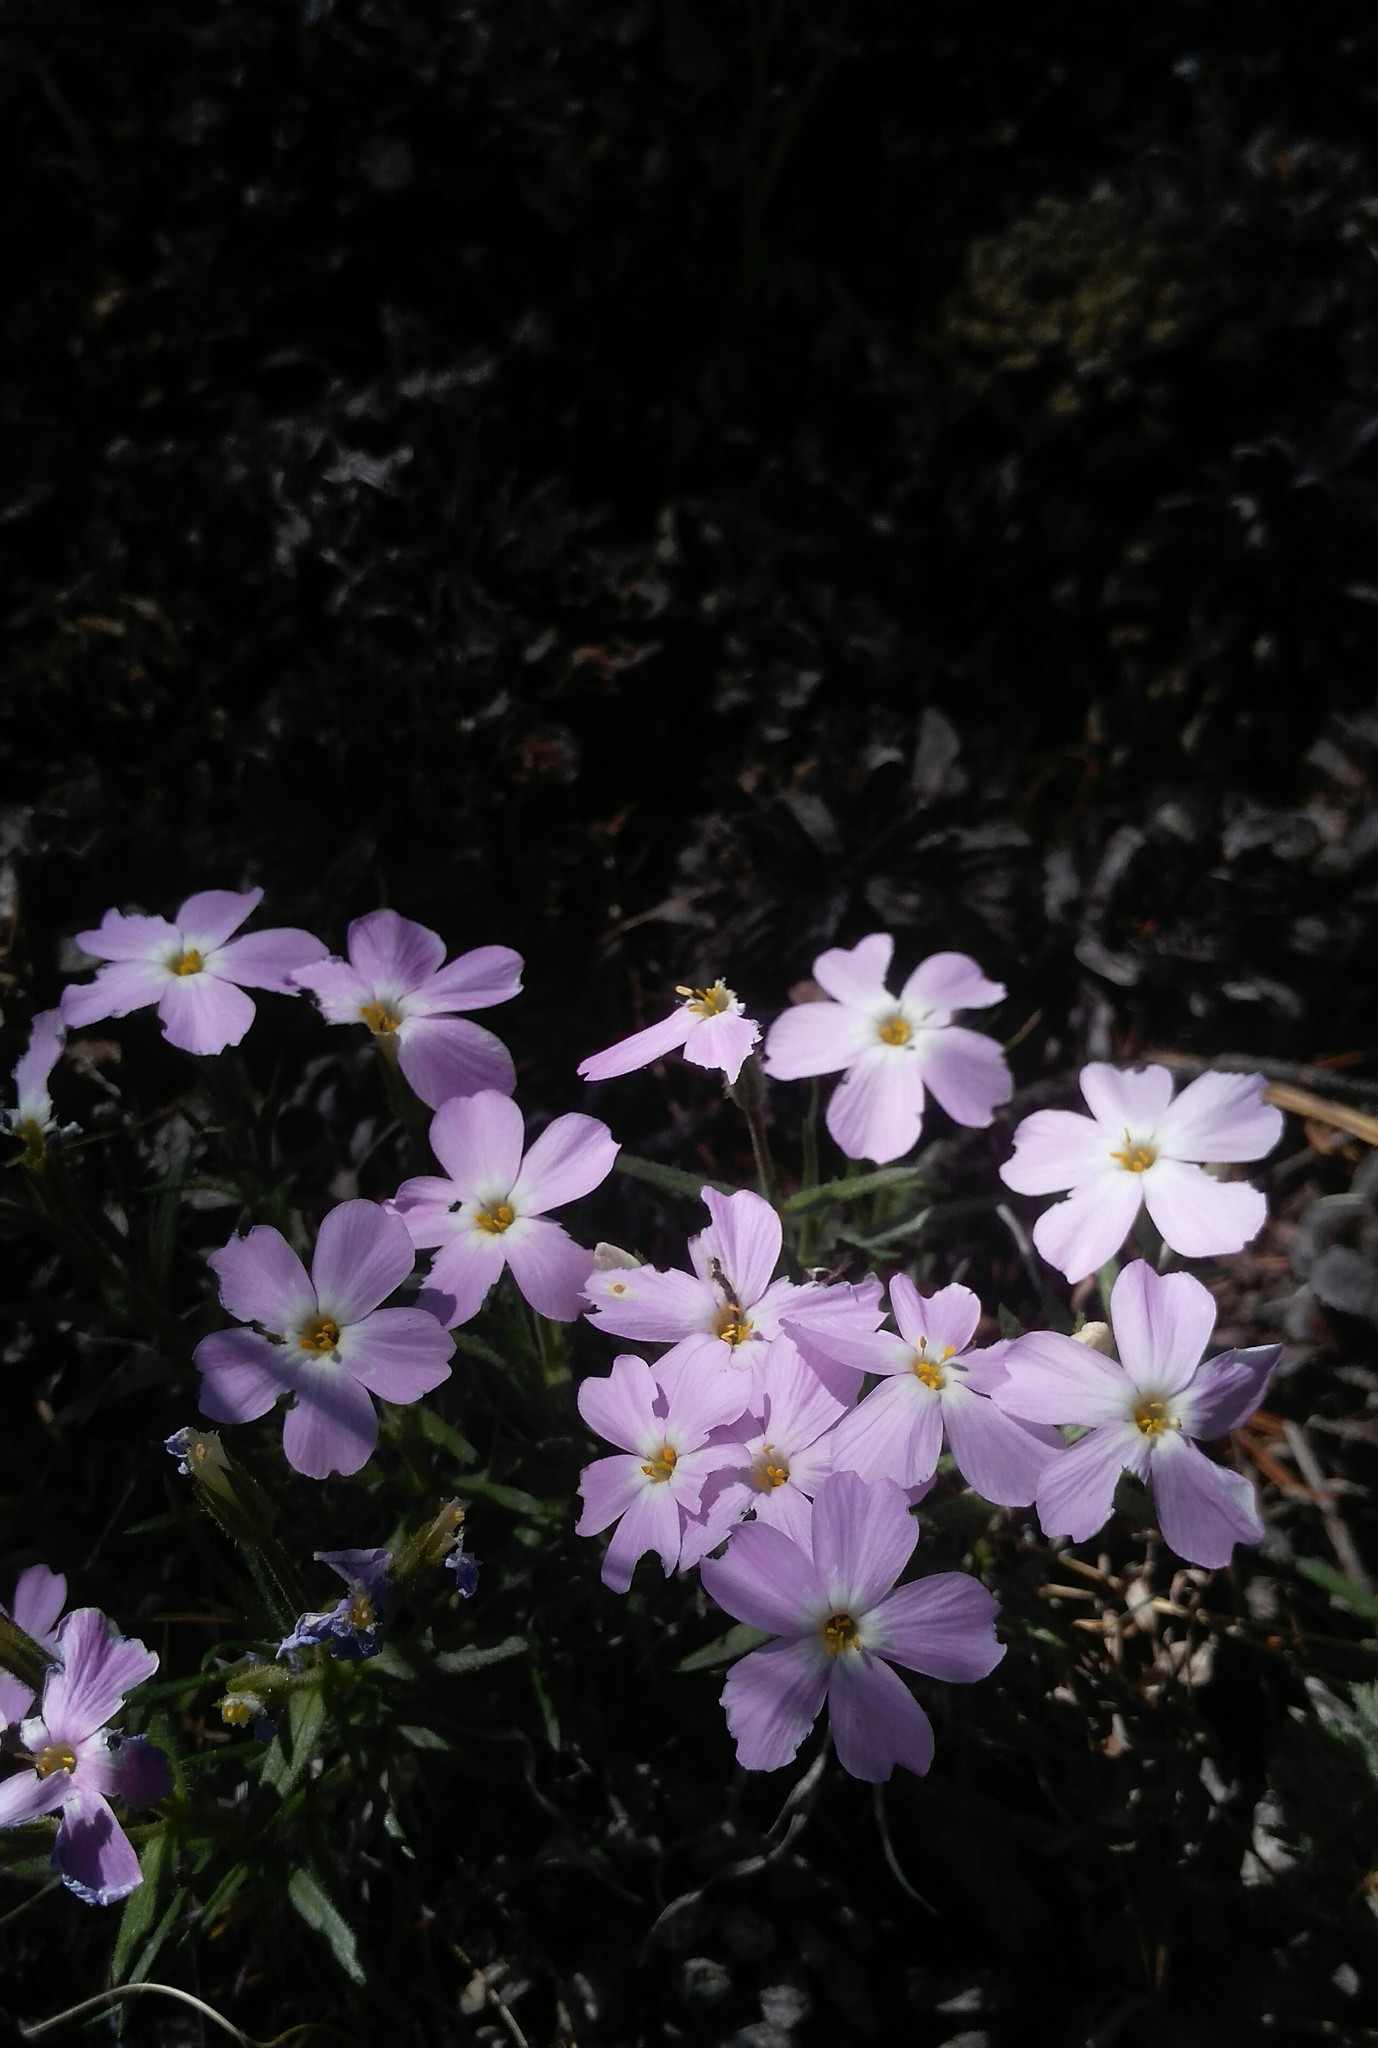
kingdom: Plantae
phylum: Tracheophyta
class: Magnoliopsida
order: Ericales
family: Polemoniaceae
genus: Phlox
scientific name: Phlox sibirica
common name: Siberian phlox
